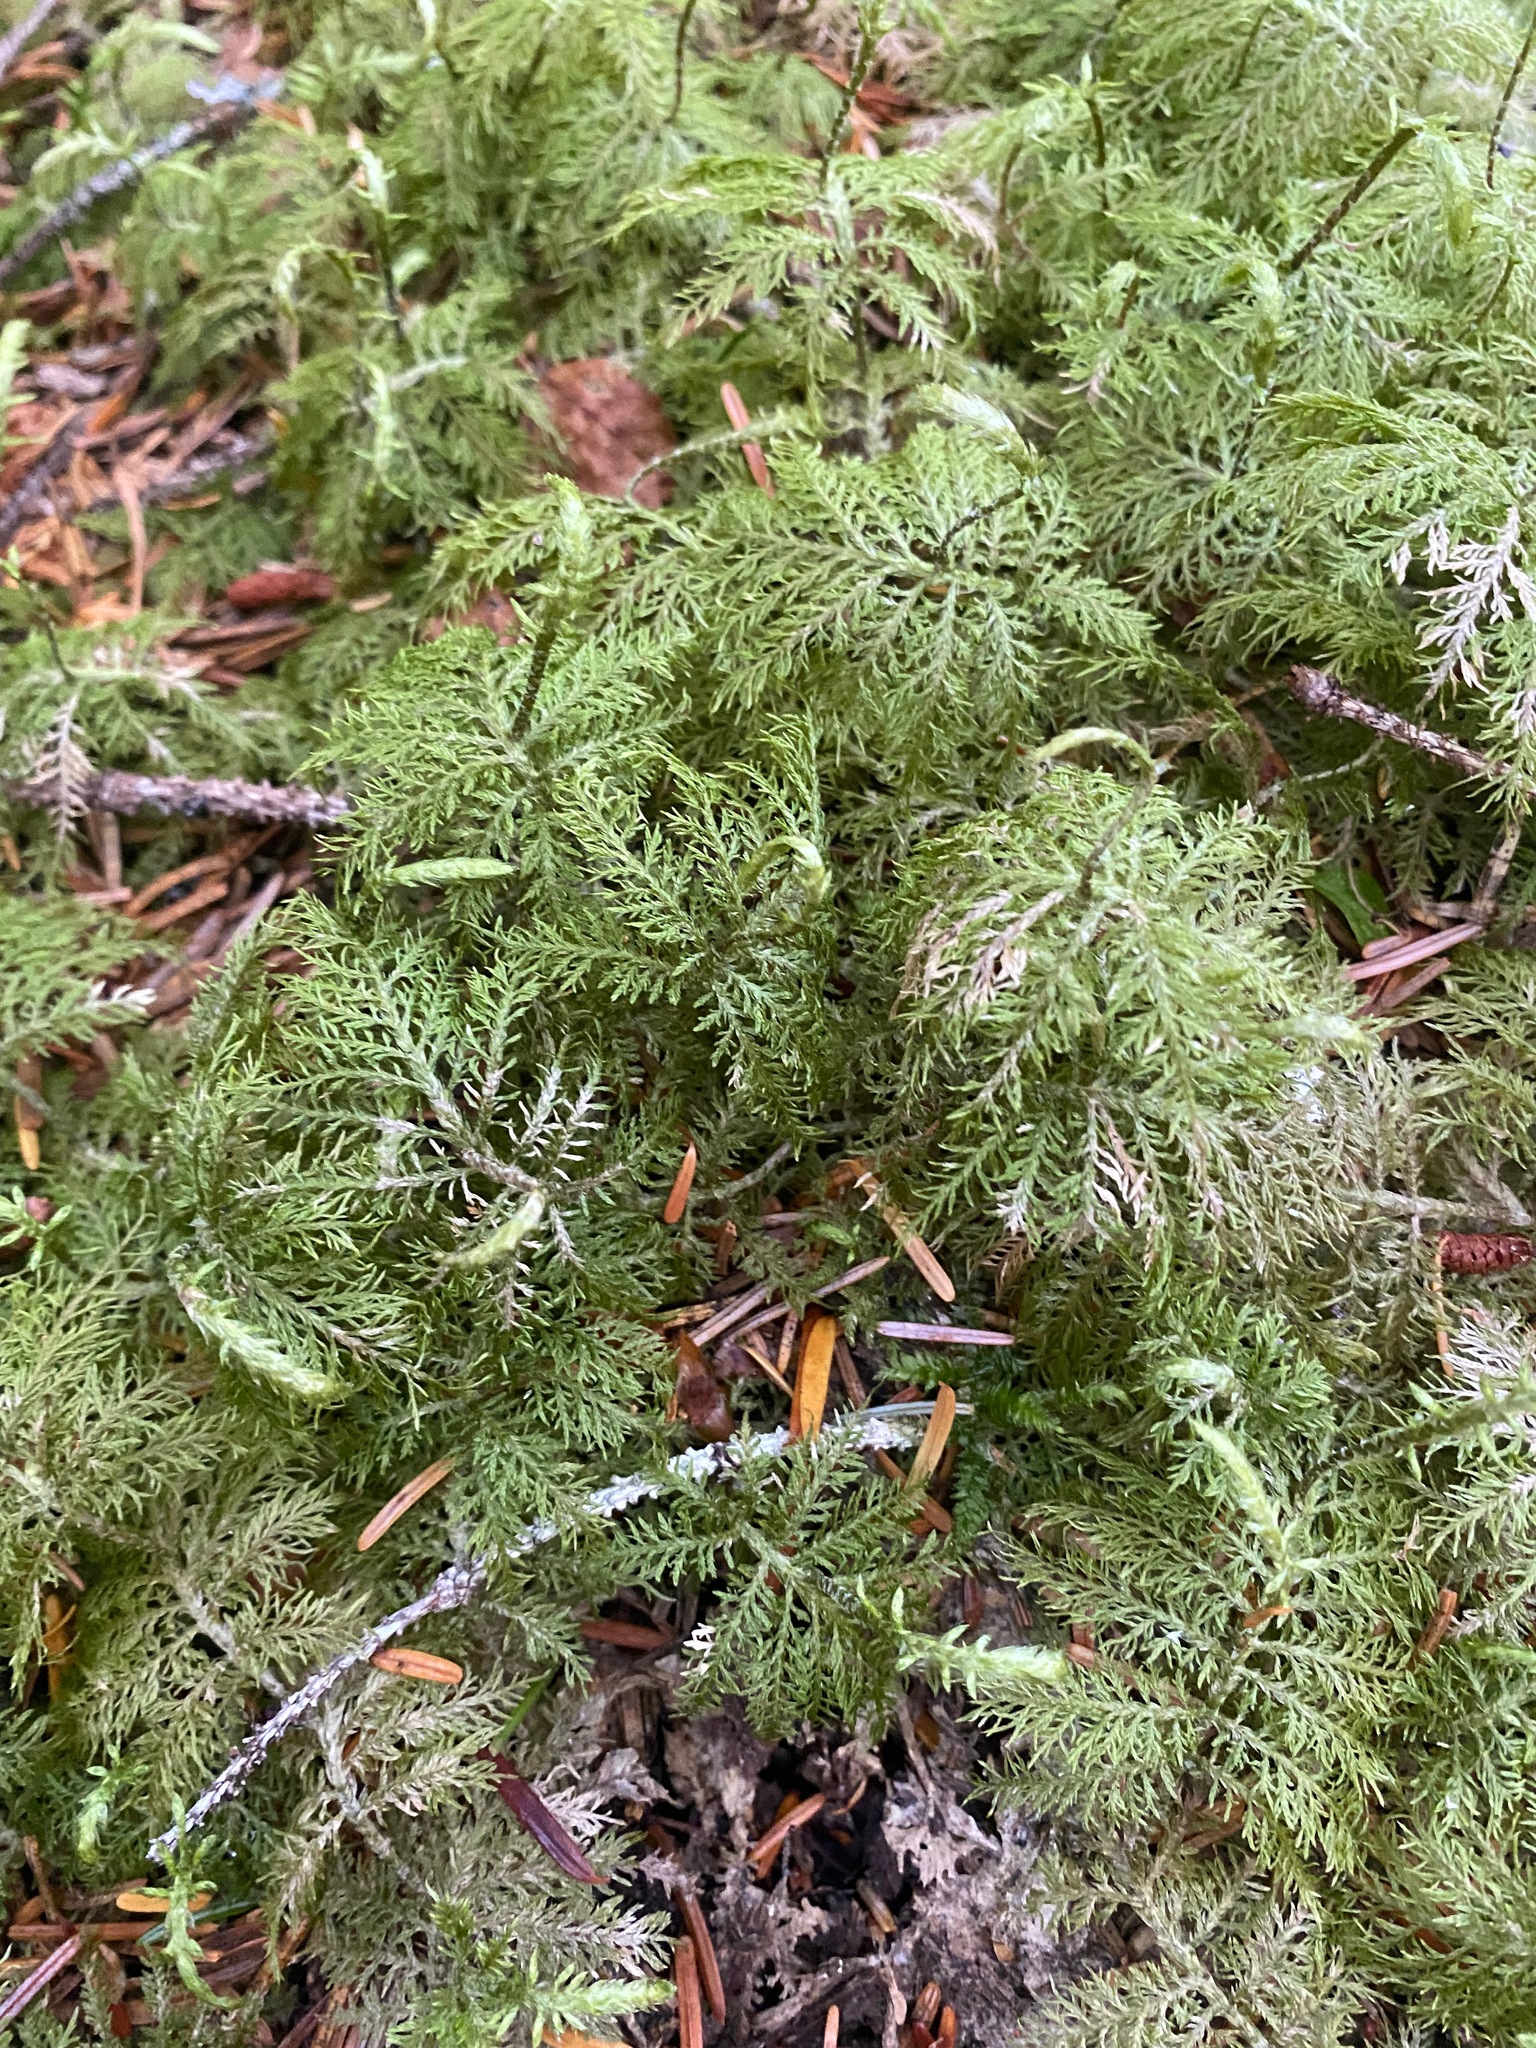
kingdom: Plantae
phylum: Bryophyta
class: Bryopsida
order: Hypnales
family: Hylocomiaceae
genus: Hylocomium
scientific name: Hylocomium splendens
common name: Stairstep moss
